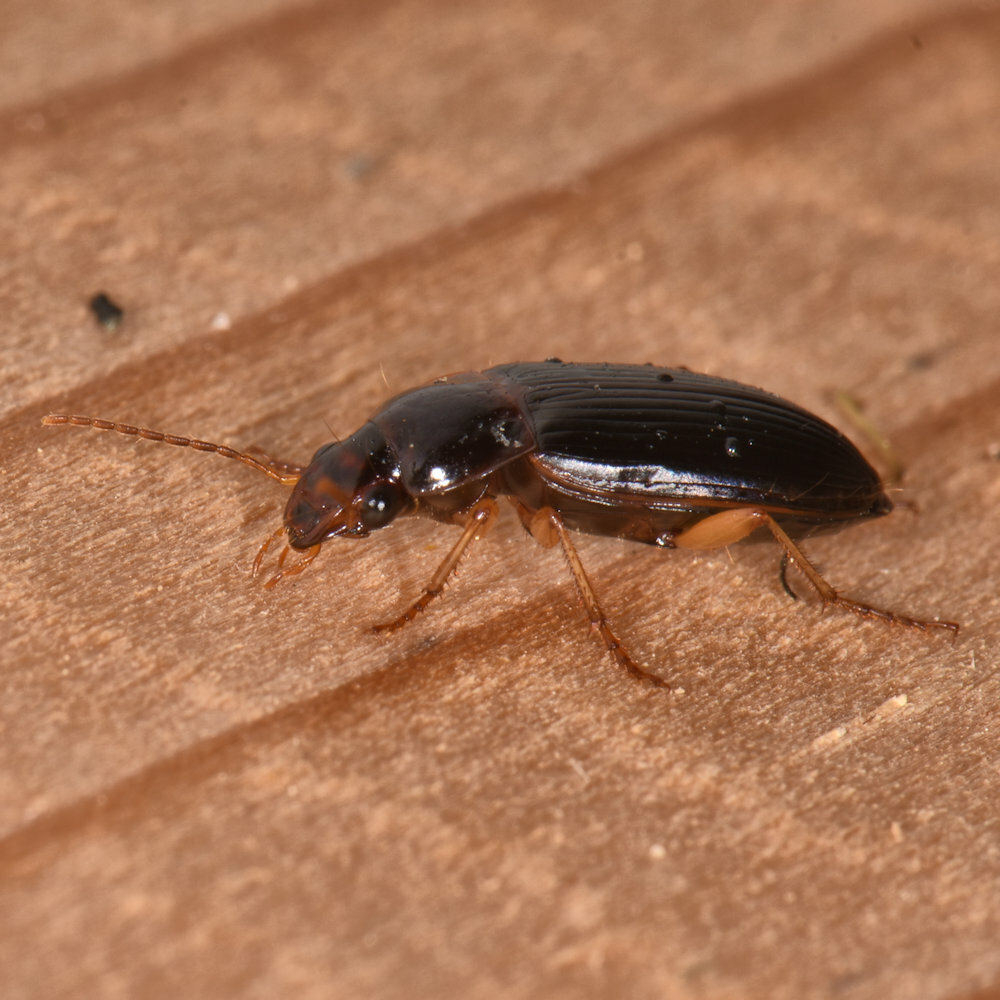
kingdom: Animalia
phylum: Arthropoda
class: Insecta
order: Coleoptera
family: Carabidae
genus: Notiobia
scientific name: Notiobia terminata
